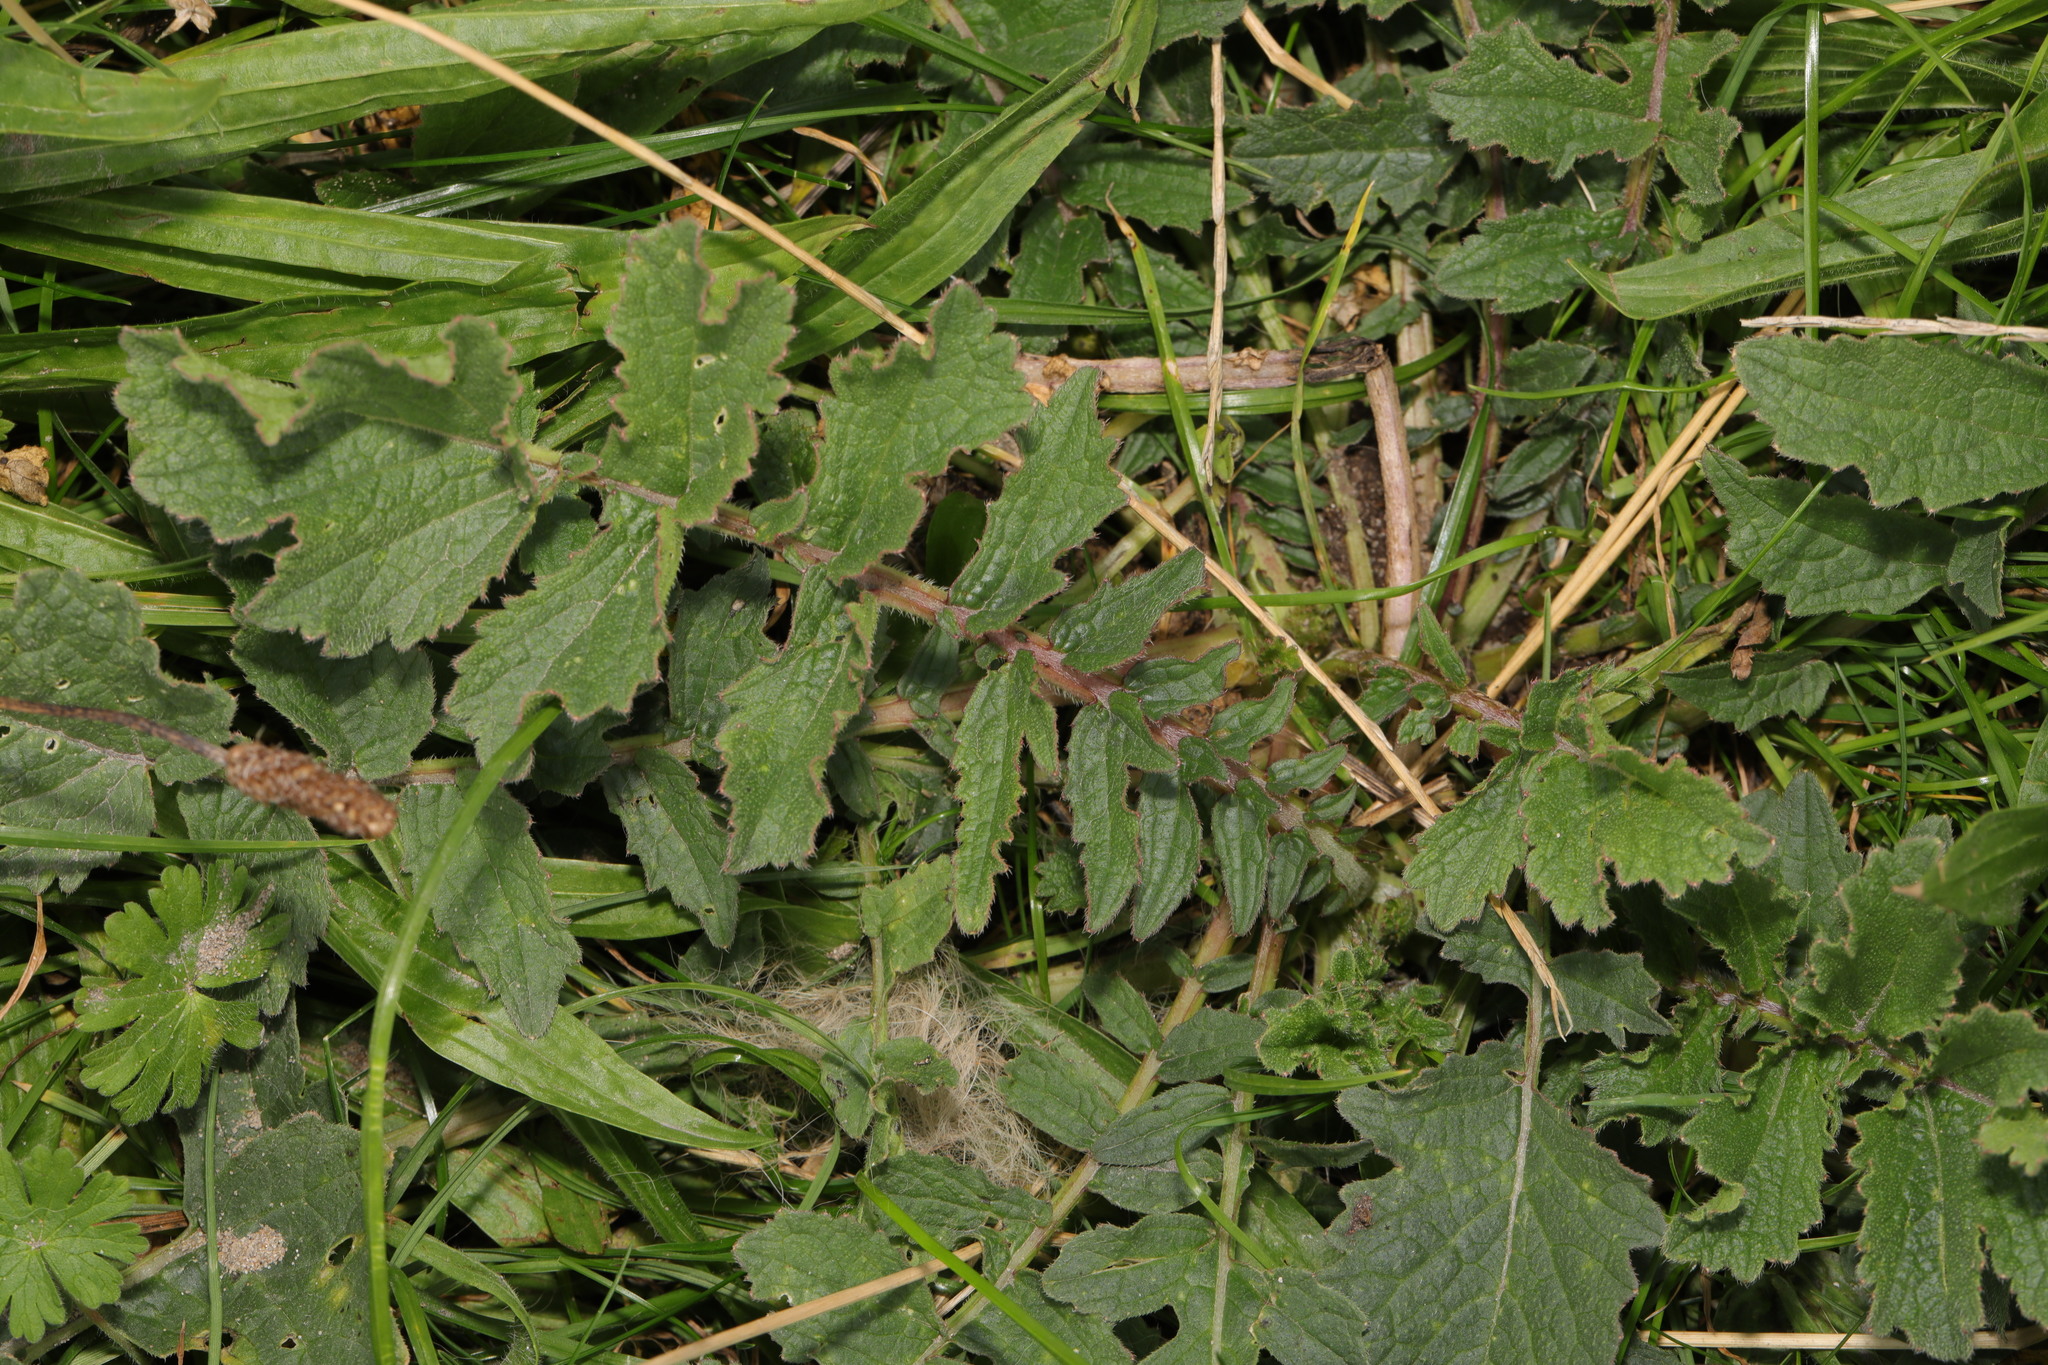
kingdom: Plantae
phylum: Tracheophyta
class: Magnoliopsida
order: Brassicales
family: Brassicaceae
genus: Raphanus
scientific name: Raphanus raphanistrum
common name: Wild radish
